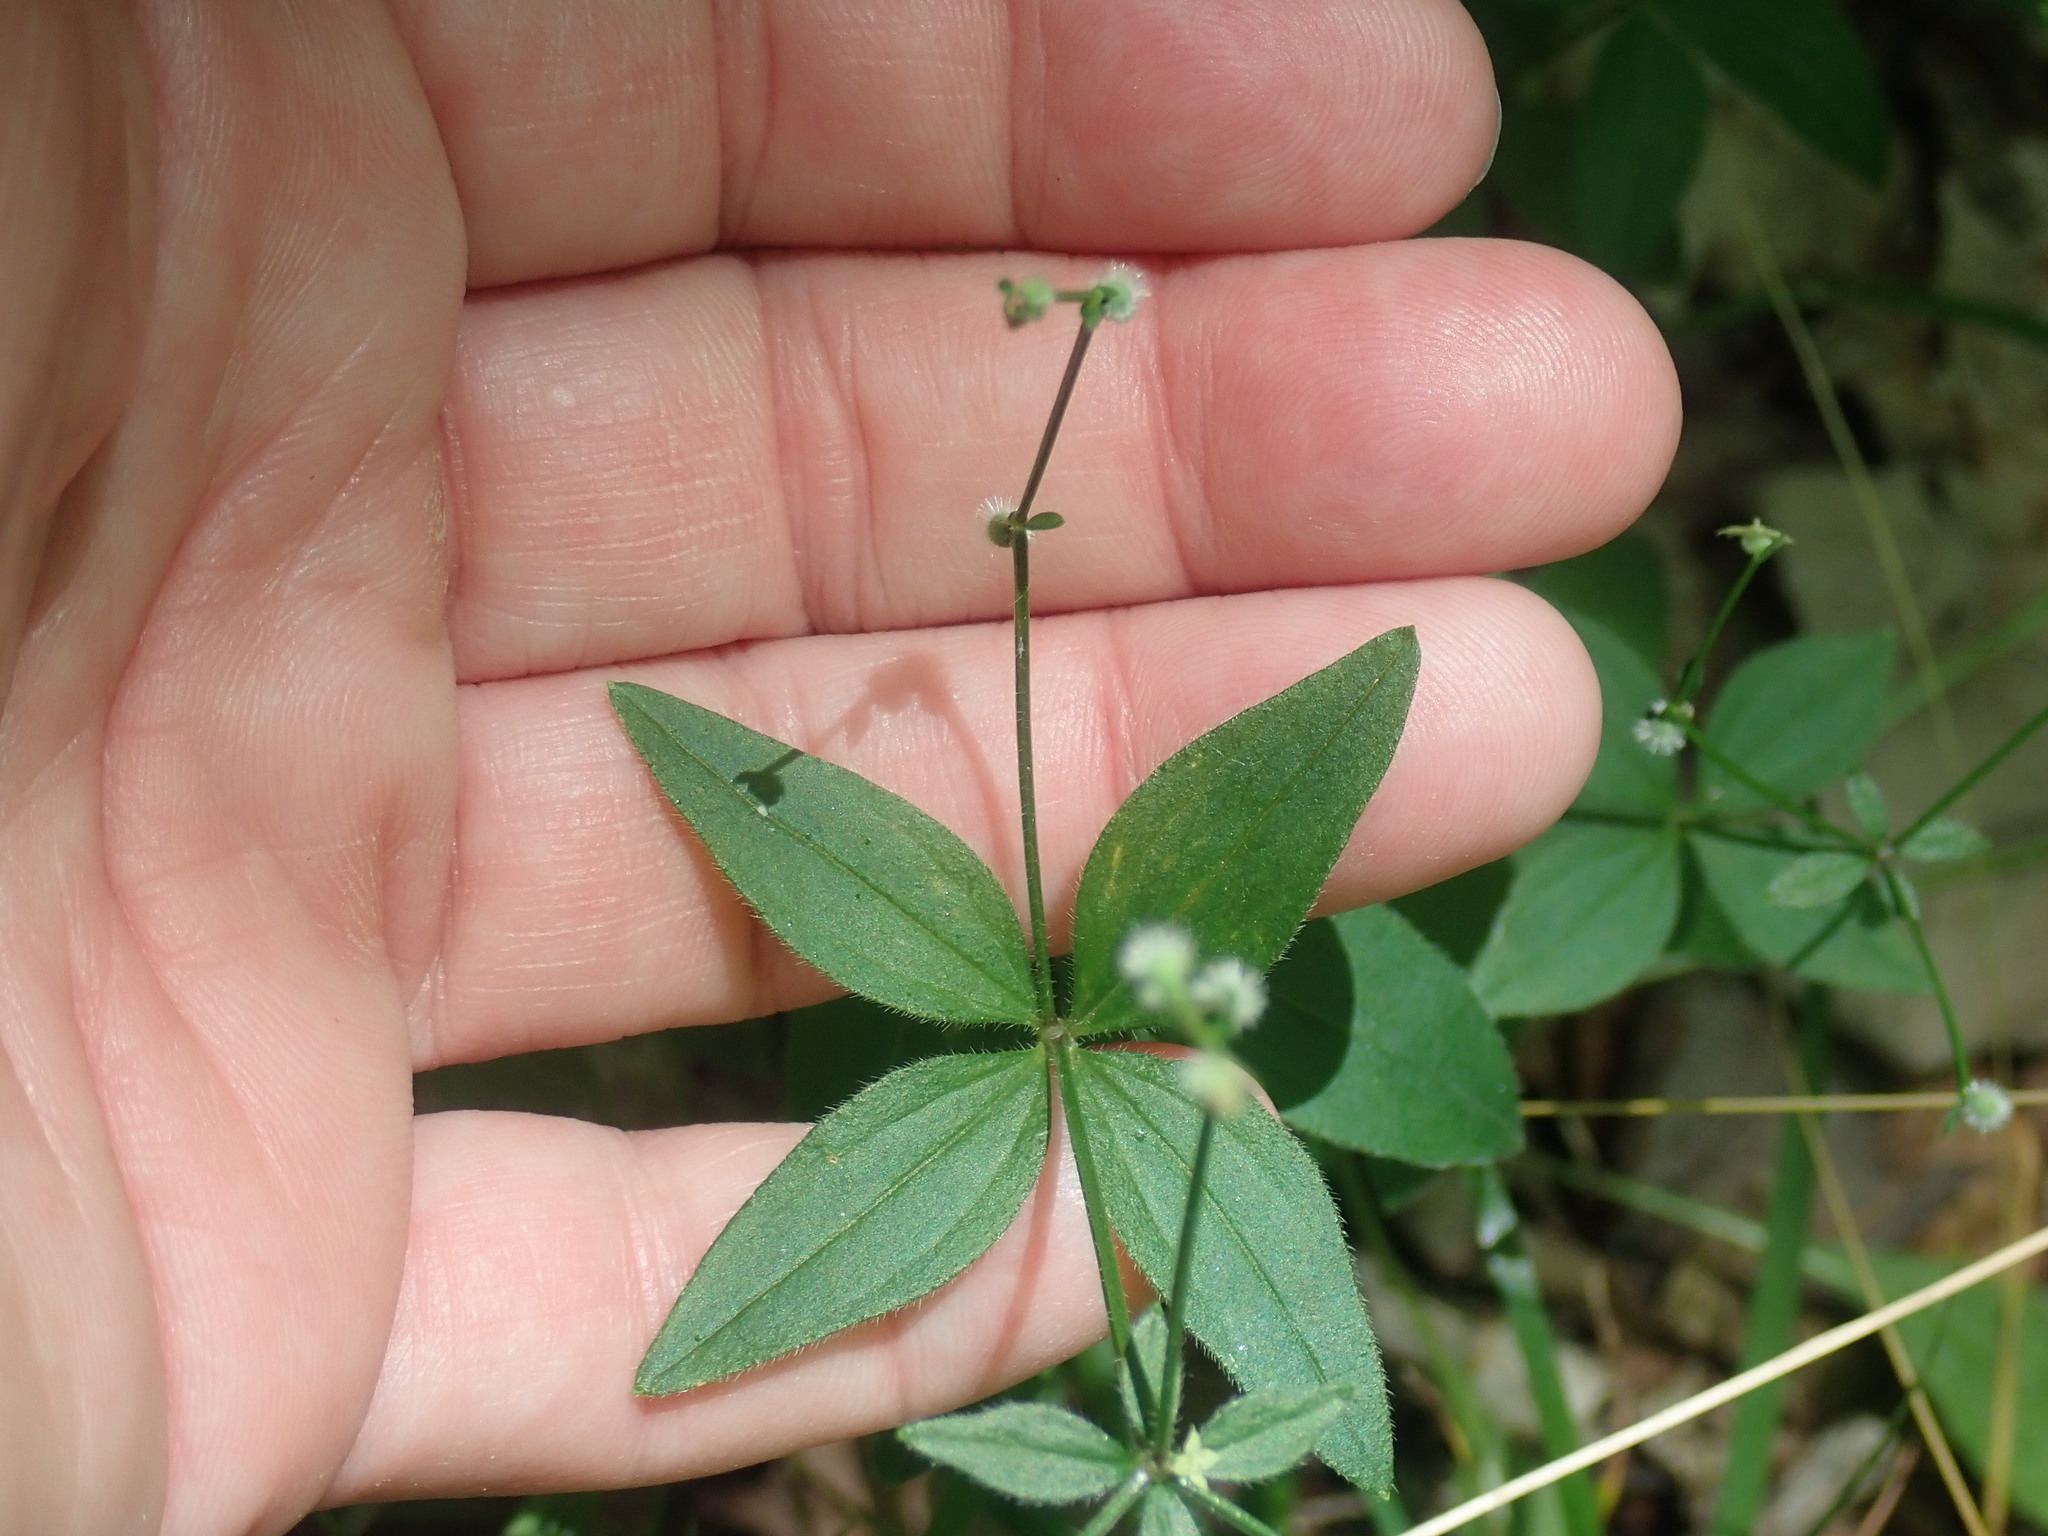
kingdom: Plantae
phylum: Tracheophyta
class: Magnoliopsida
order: Gentianales
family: Rubiaceae
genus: Galium
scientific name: Galium circaezans
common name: Forest bedstraw
